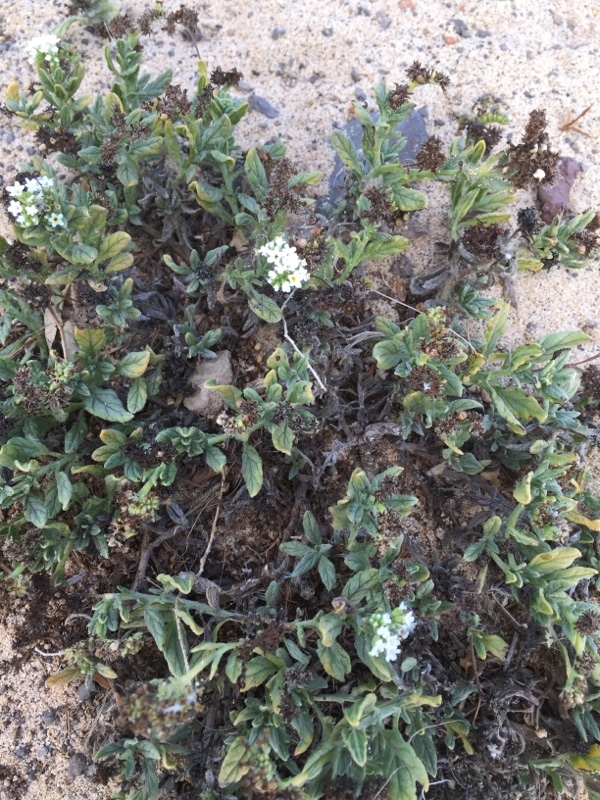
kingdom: Plantae
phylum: Tracheophyta
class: Magnoliopsida
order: Boraginales
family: Heliotropiaceae
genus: Heliotropium
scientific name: Heliotropium ramosissimum
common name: Wavy heliotrope
